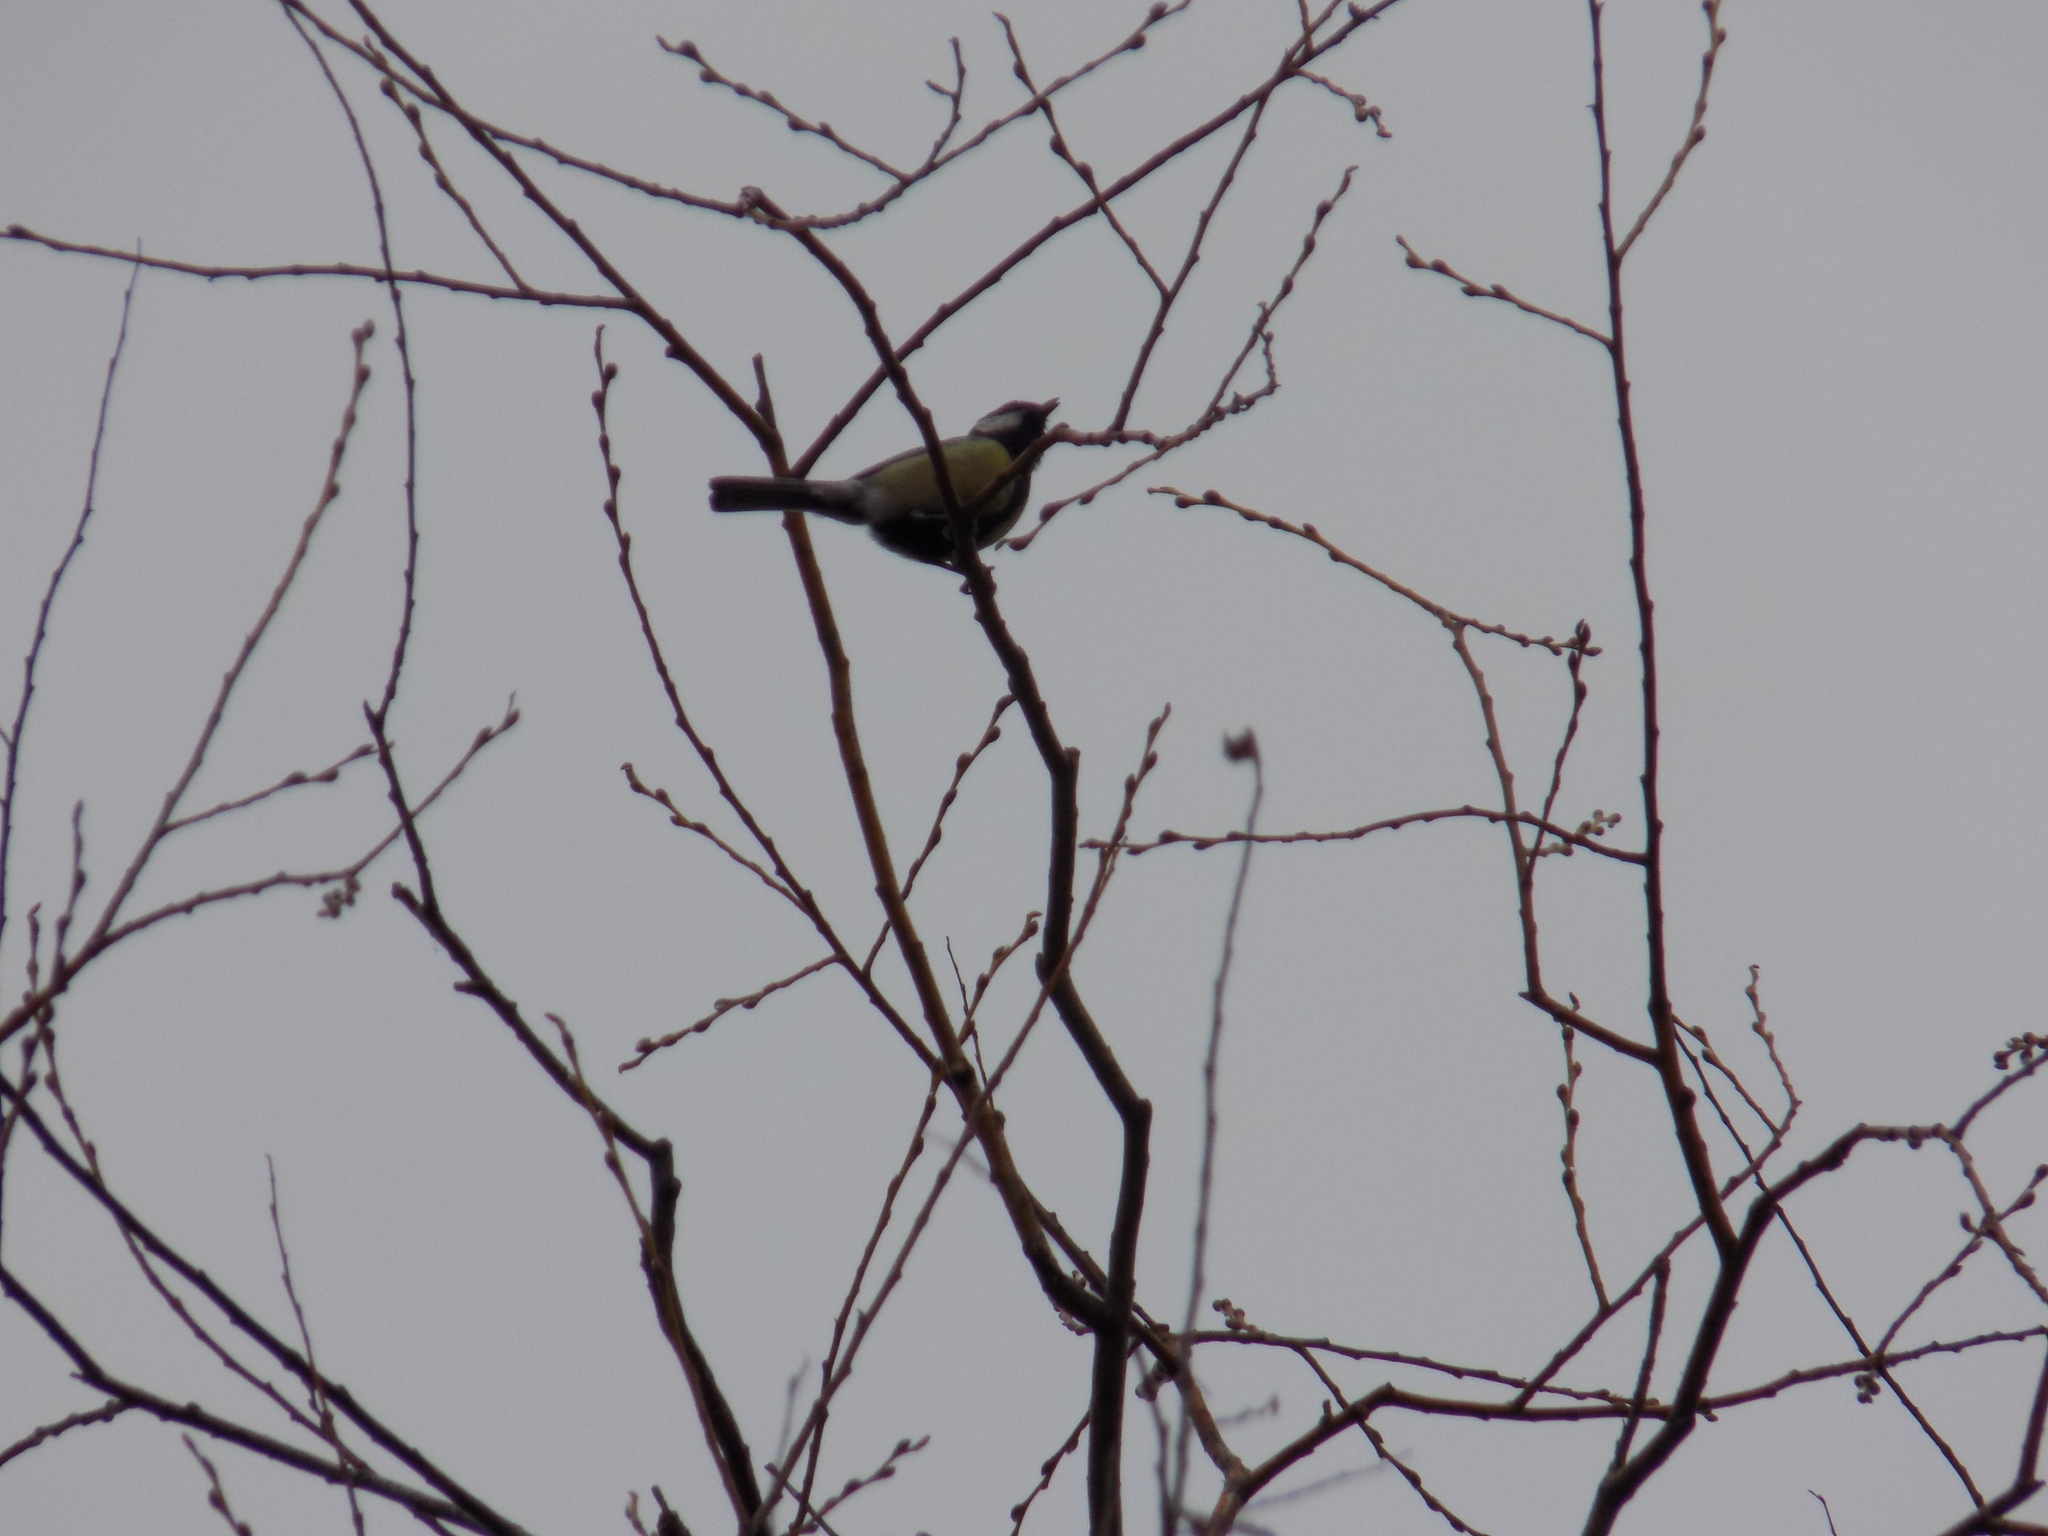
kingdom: Animalia
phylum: Chordata
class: Aves
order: Passeriformes
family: Paridae
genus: Parus
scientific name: Parus major
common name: Great tit
